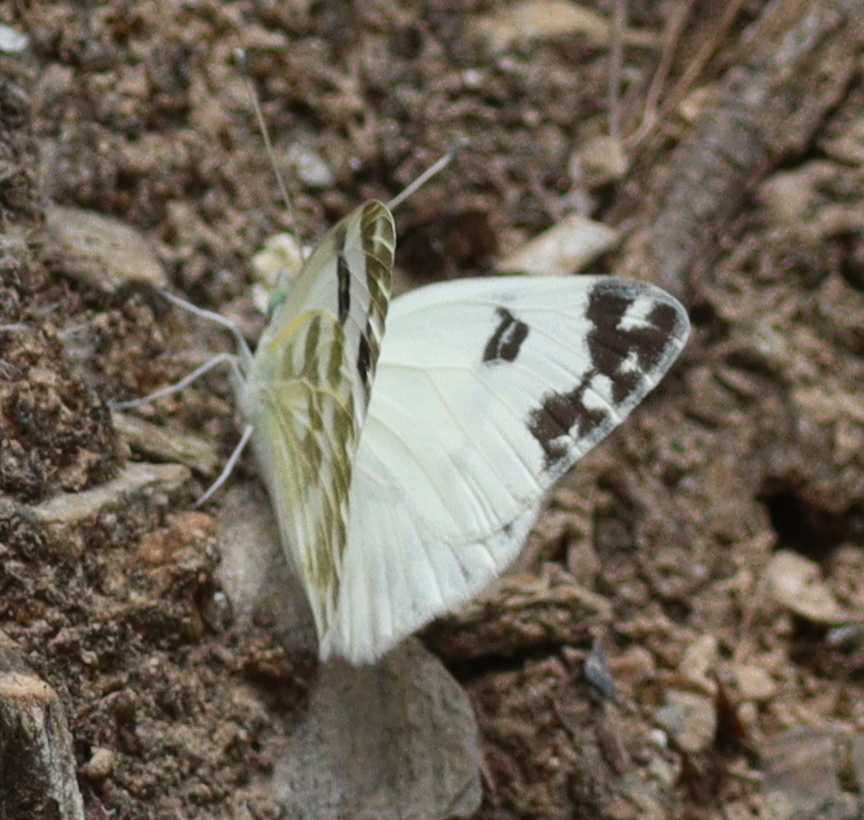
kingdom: Animalia
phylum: Arthropoda
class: Insecta
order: Lepidoptera
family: Pieridae
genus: Pontia
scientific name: Pontia daplidice
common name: Bath white
